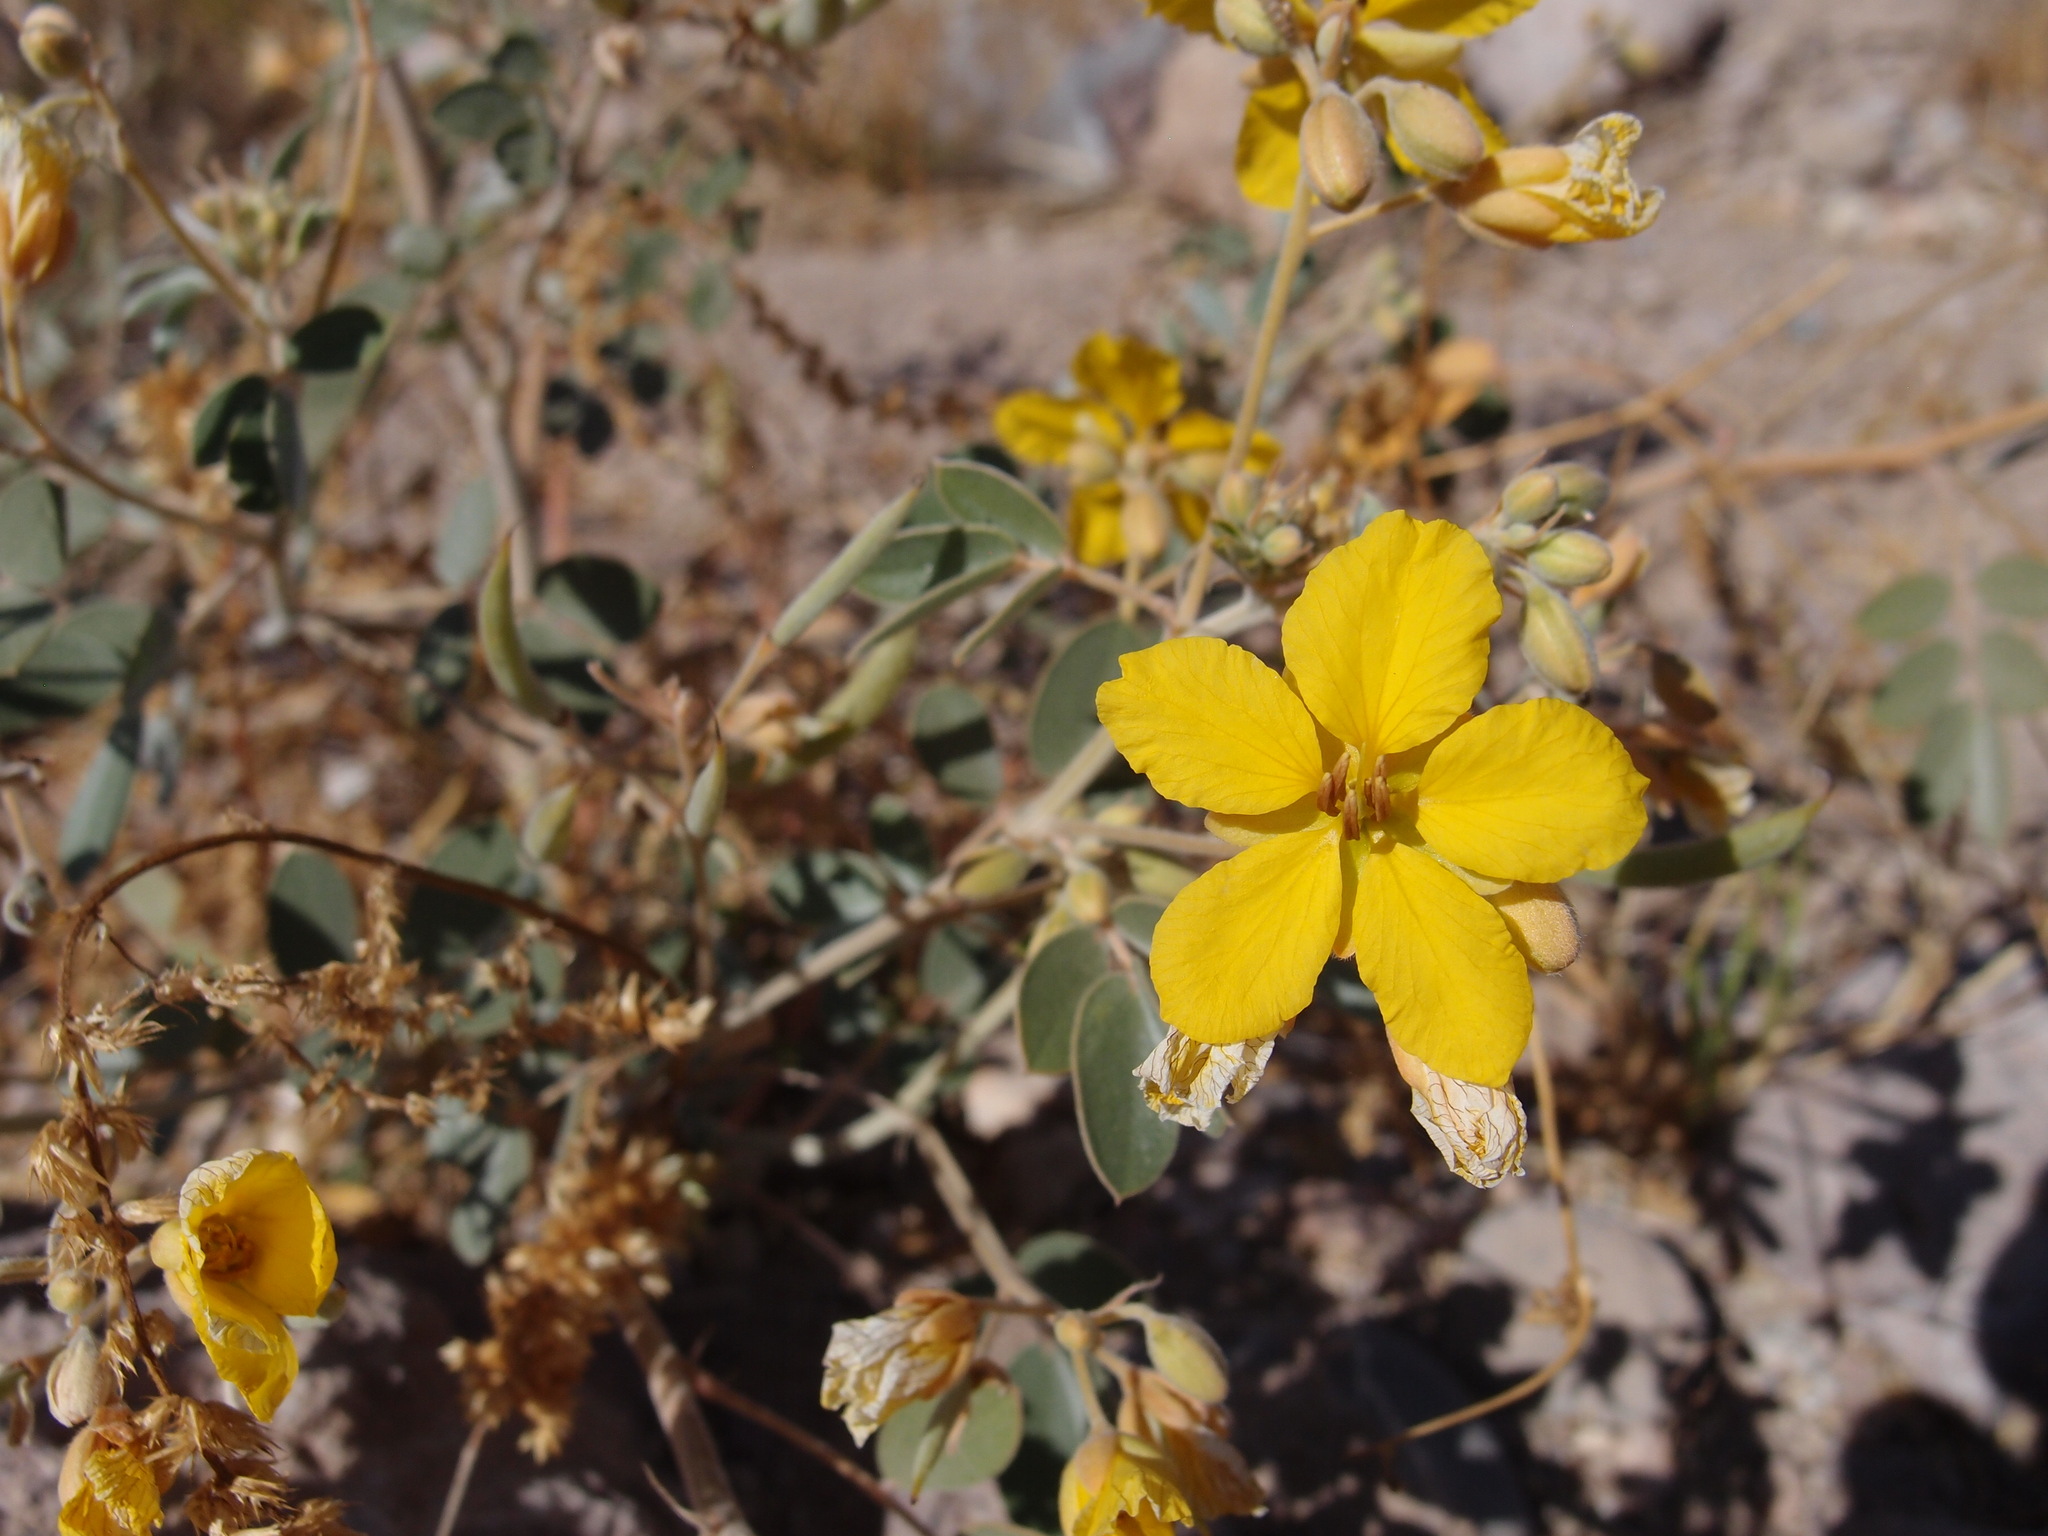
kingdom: Plantae
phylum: Tracheophyta
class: Magnoliopsida
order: Fabales
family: Fabaceae
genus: Senna
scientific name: Senna covesii
